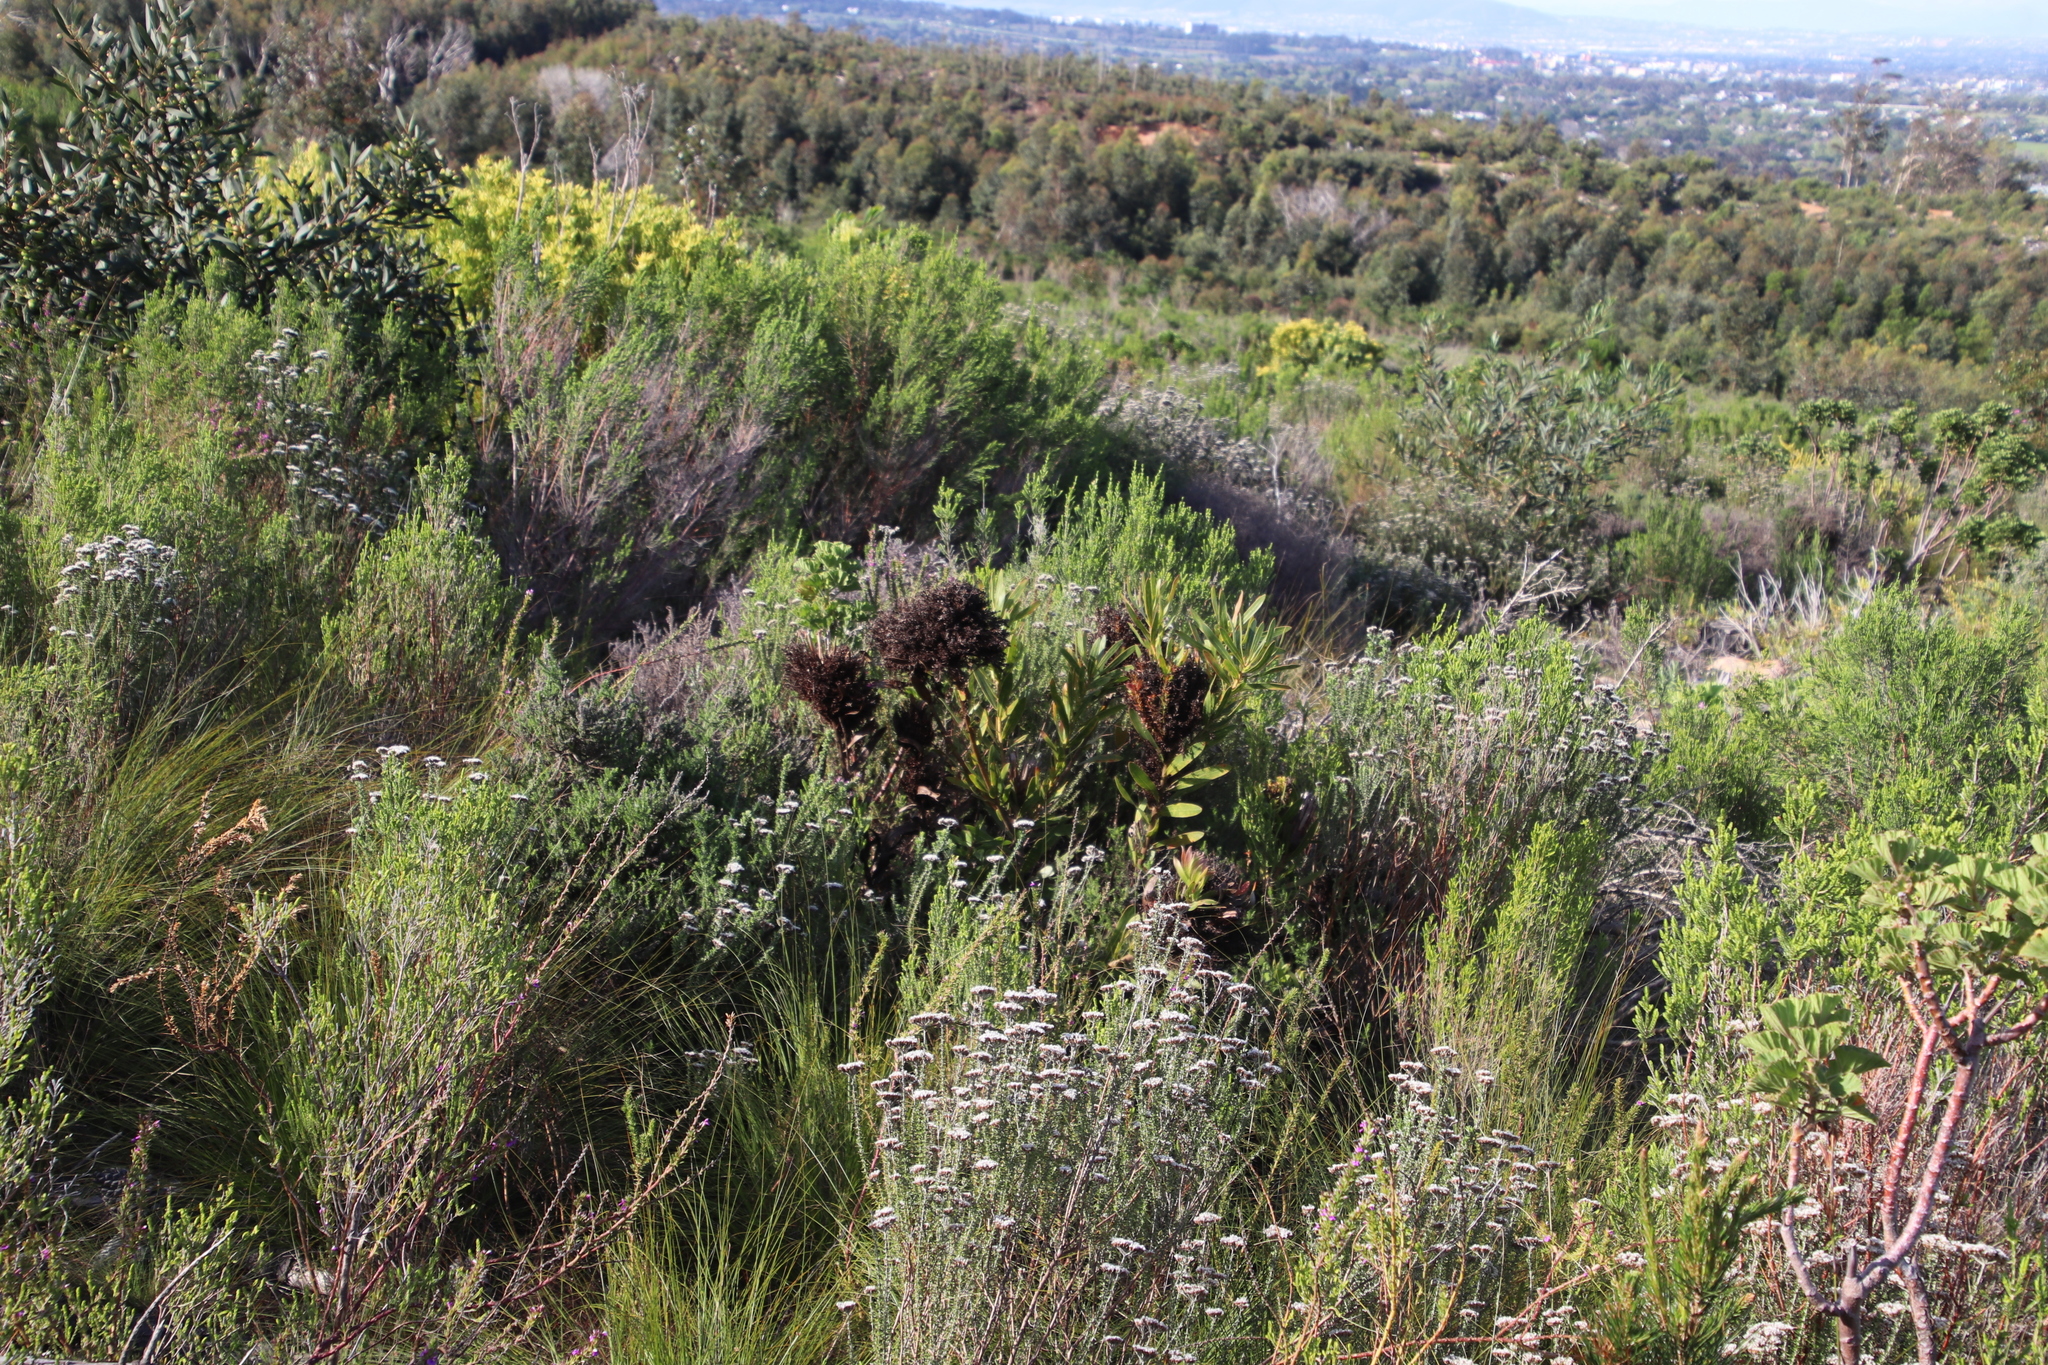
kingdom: Bacteria
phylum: Firmicutes
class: Bacilli
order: Acholeplasmatales
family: Acholeplasmataceae
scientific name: Acholeplasmataceae
